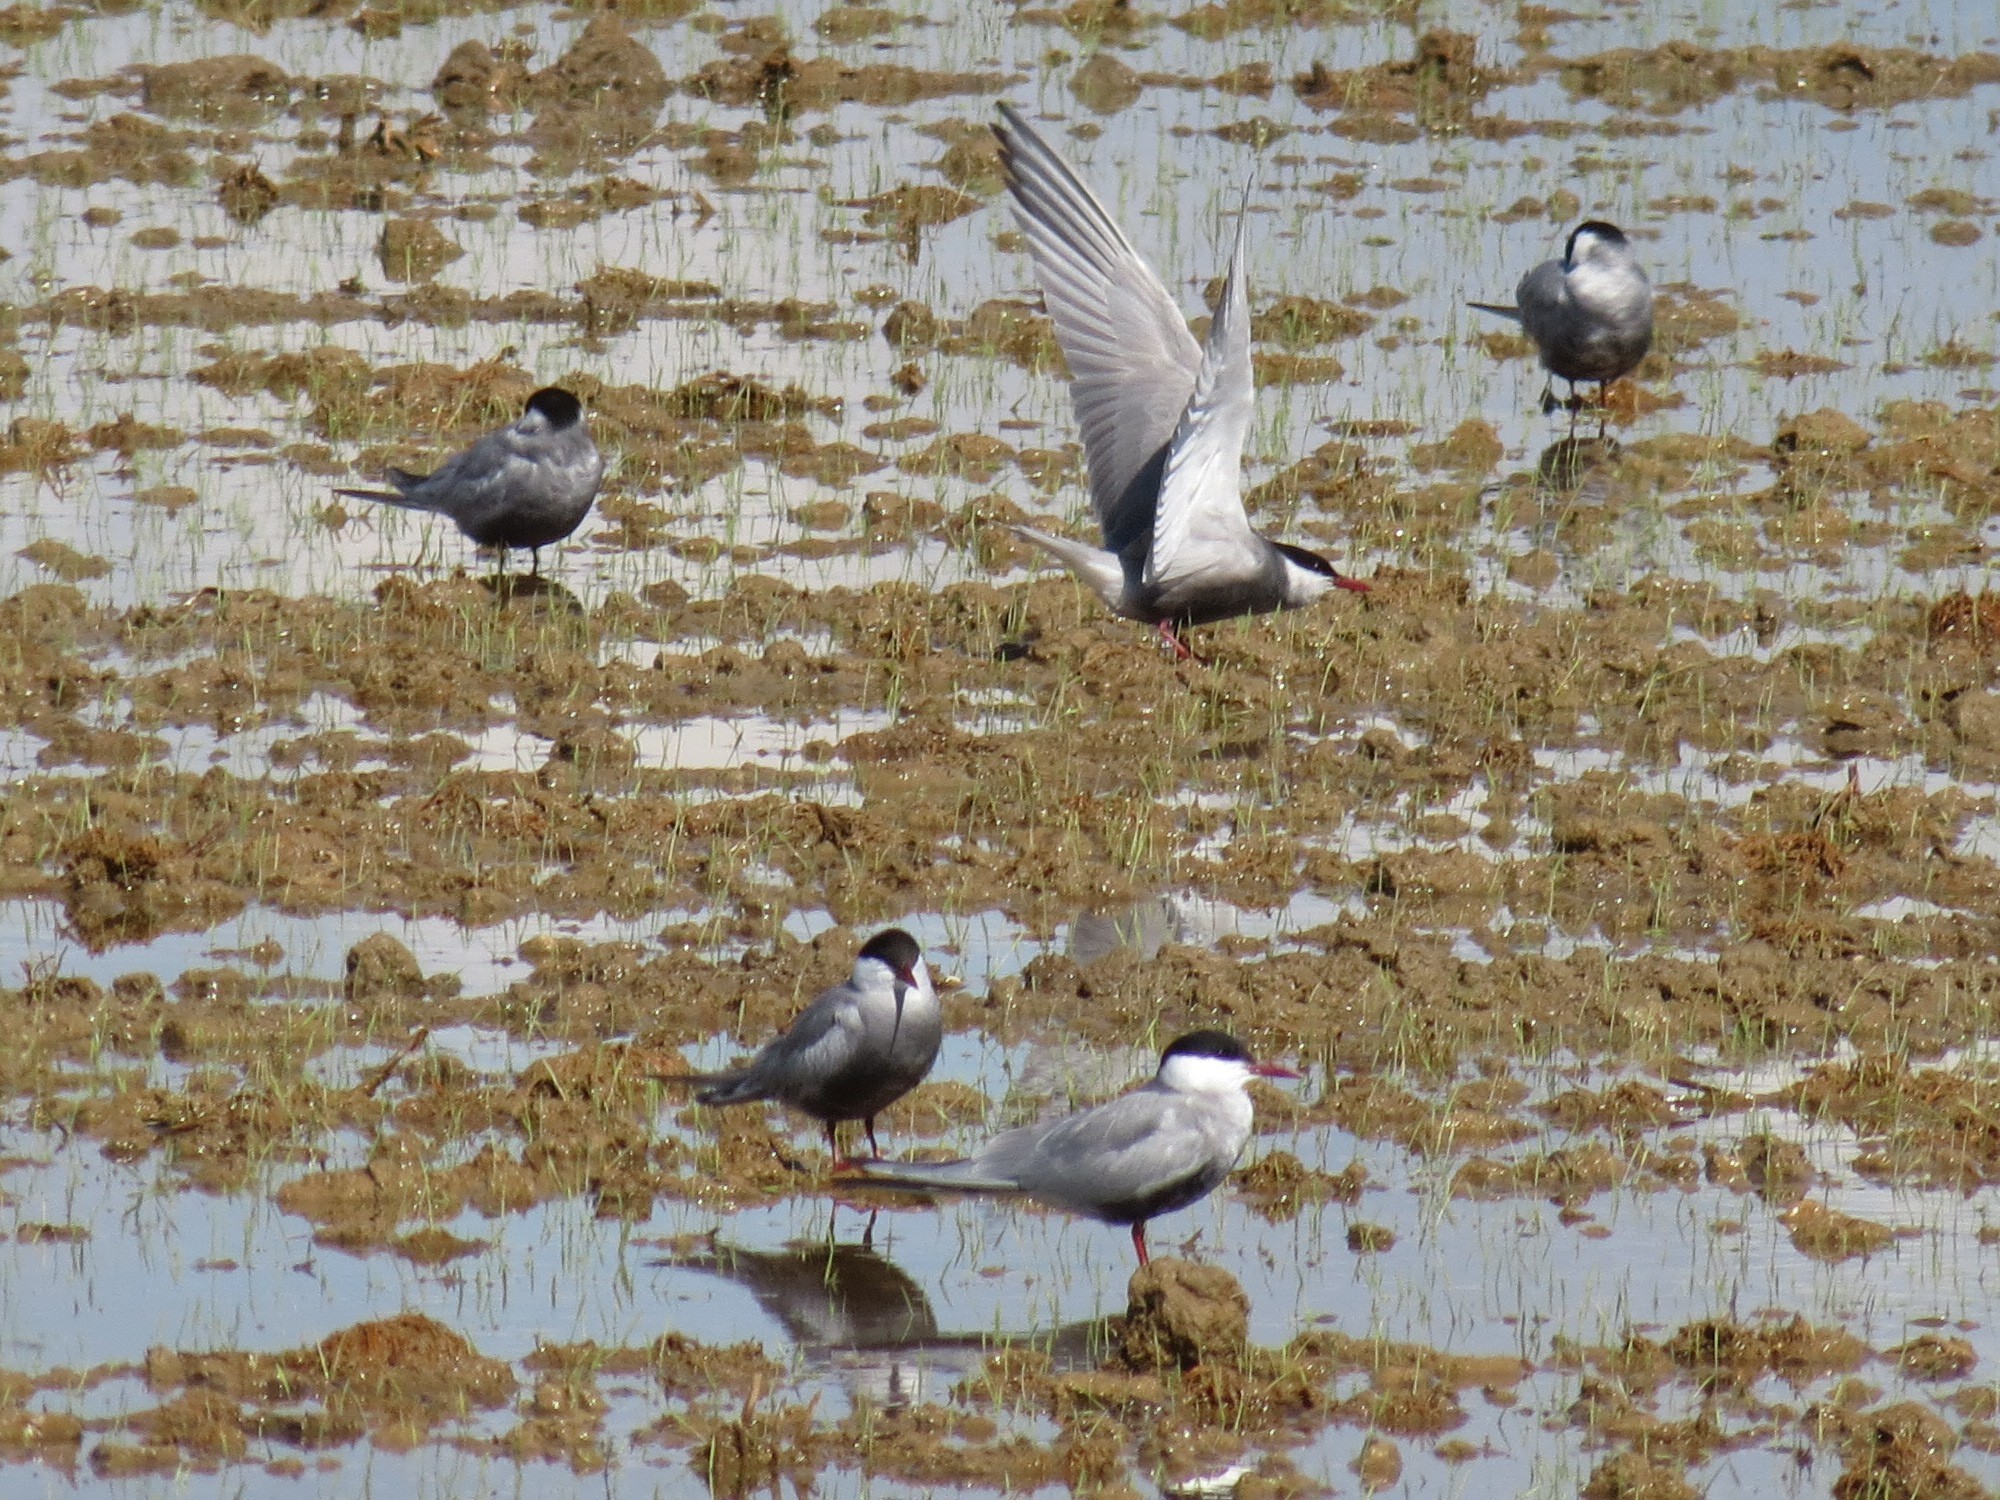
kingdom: Animalia
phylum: Chordata
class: Aves
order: Charadriiformes
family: Laridae
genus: Chlidonias
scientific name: Chlidonias hybrida
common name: Whiskered tern
